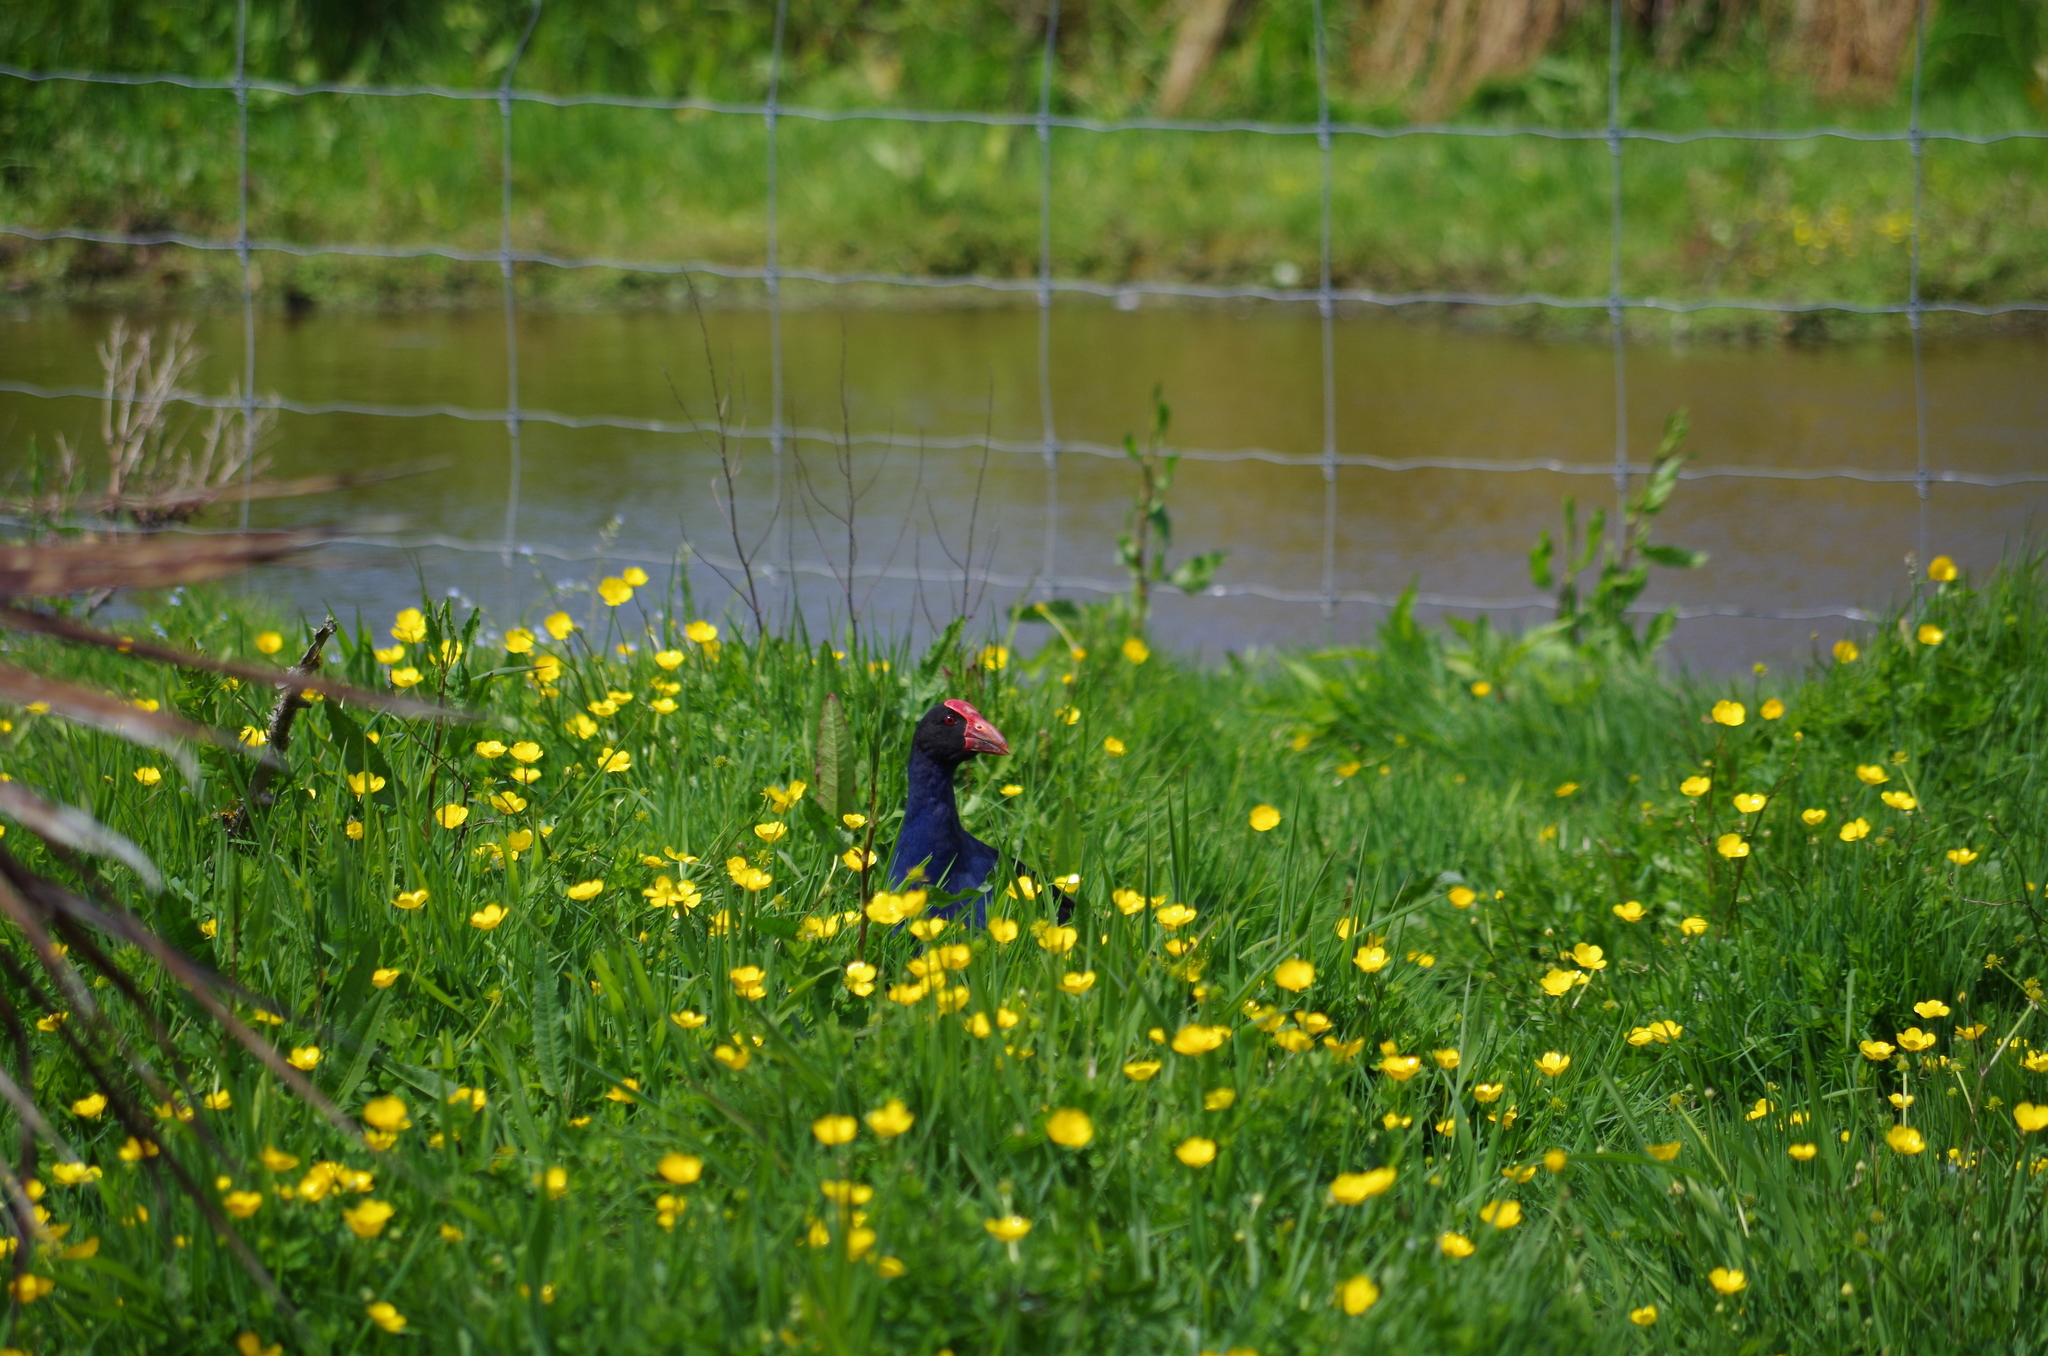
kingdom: Animalia
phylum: Chordata
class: Aves
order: Gruiformes
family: Rallidae
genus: Porphyrio
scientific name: Porphyrio melanotus
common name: Australasian swamphen
